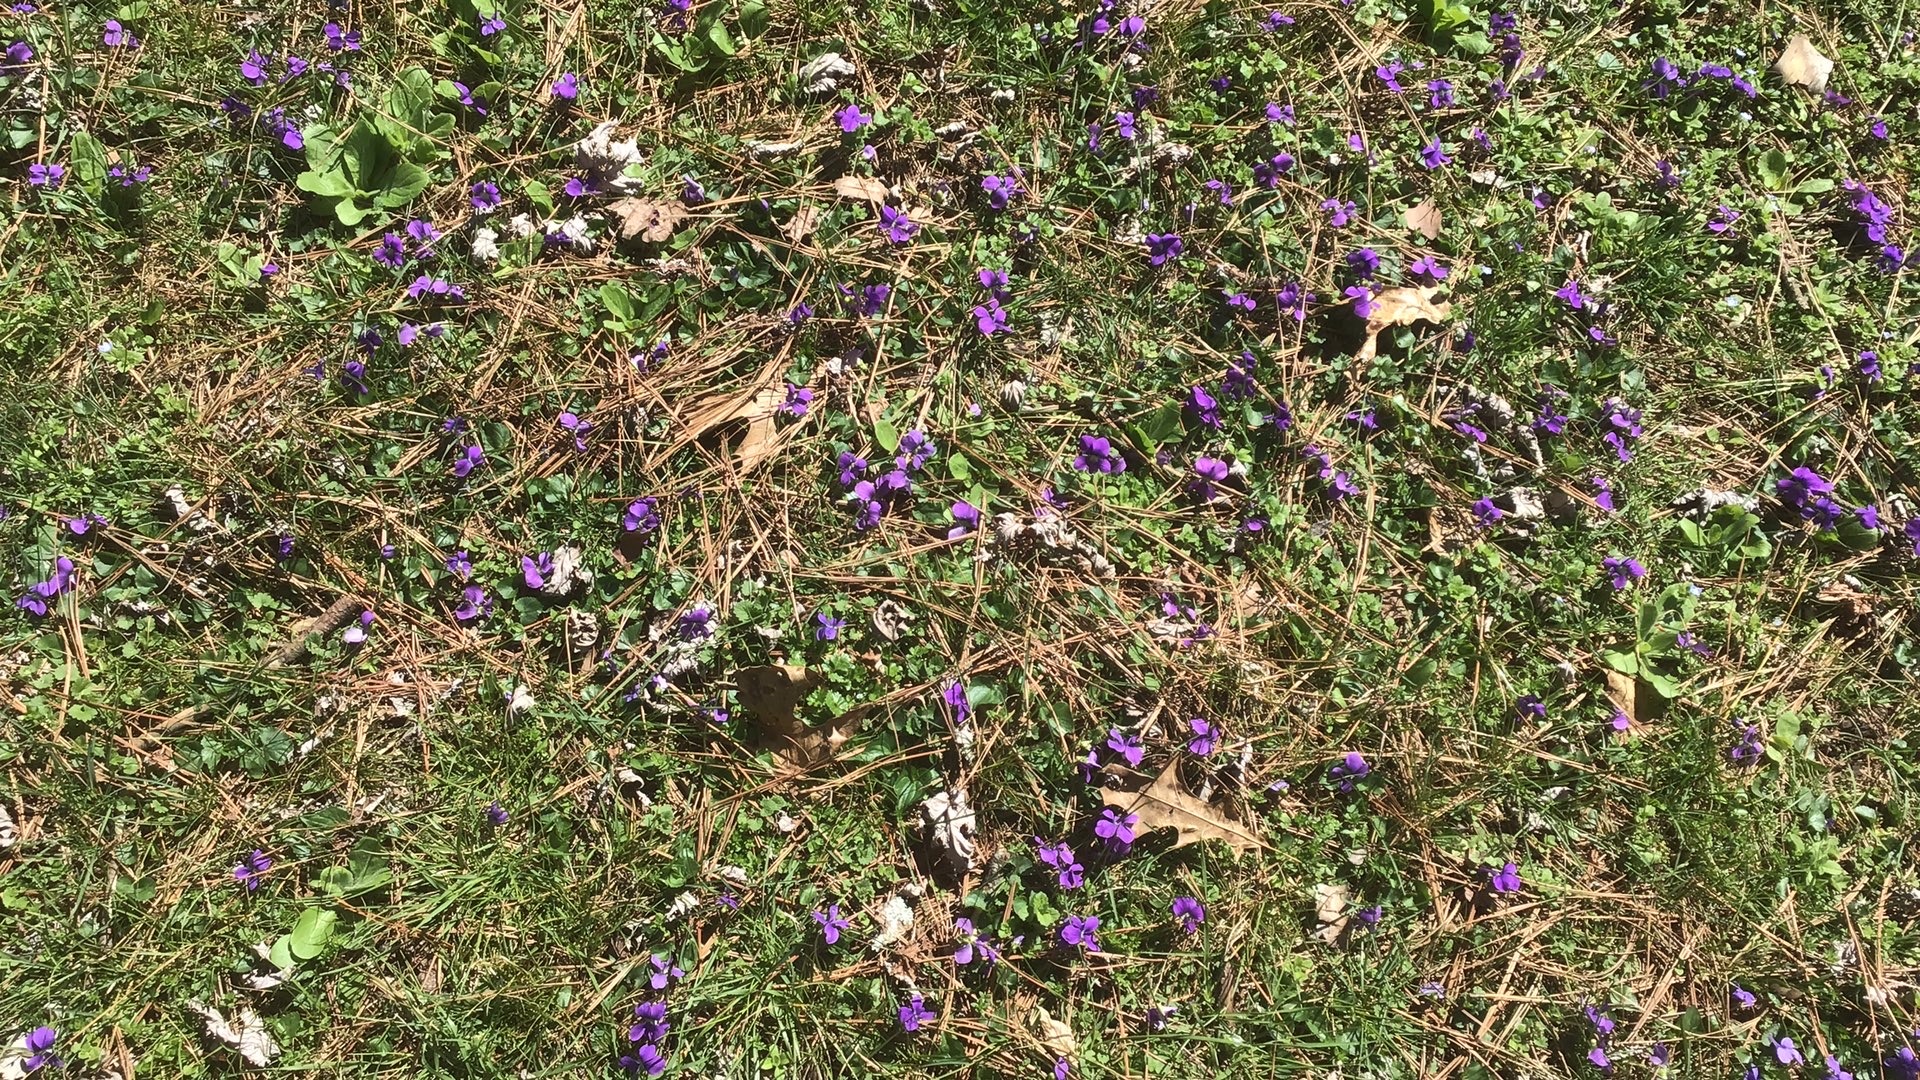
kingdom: Plantae
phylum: Tracheophyta
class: Magnoliopsida
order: Malpighiales
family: Violaceae
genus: Viola
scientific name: Viola sororia
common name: Dooryard violet
